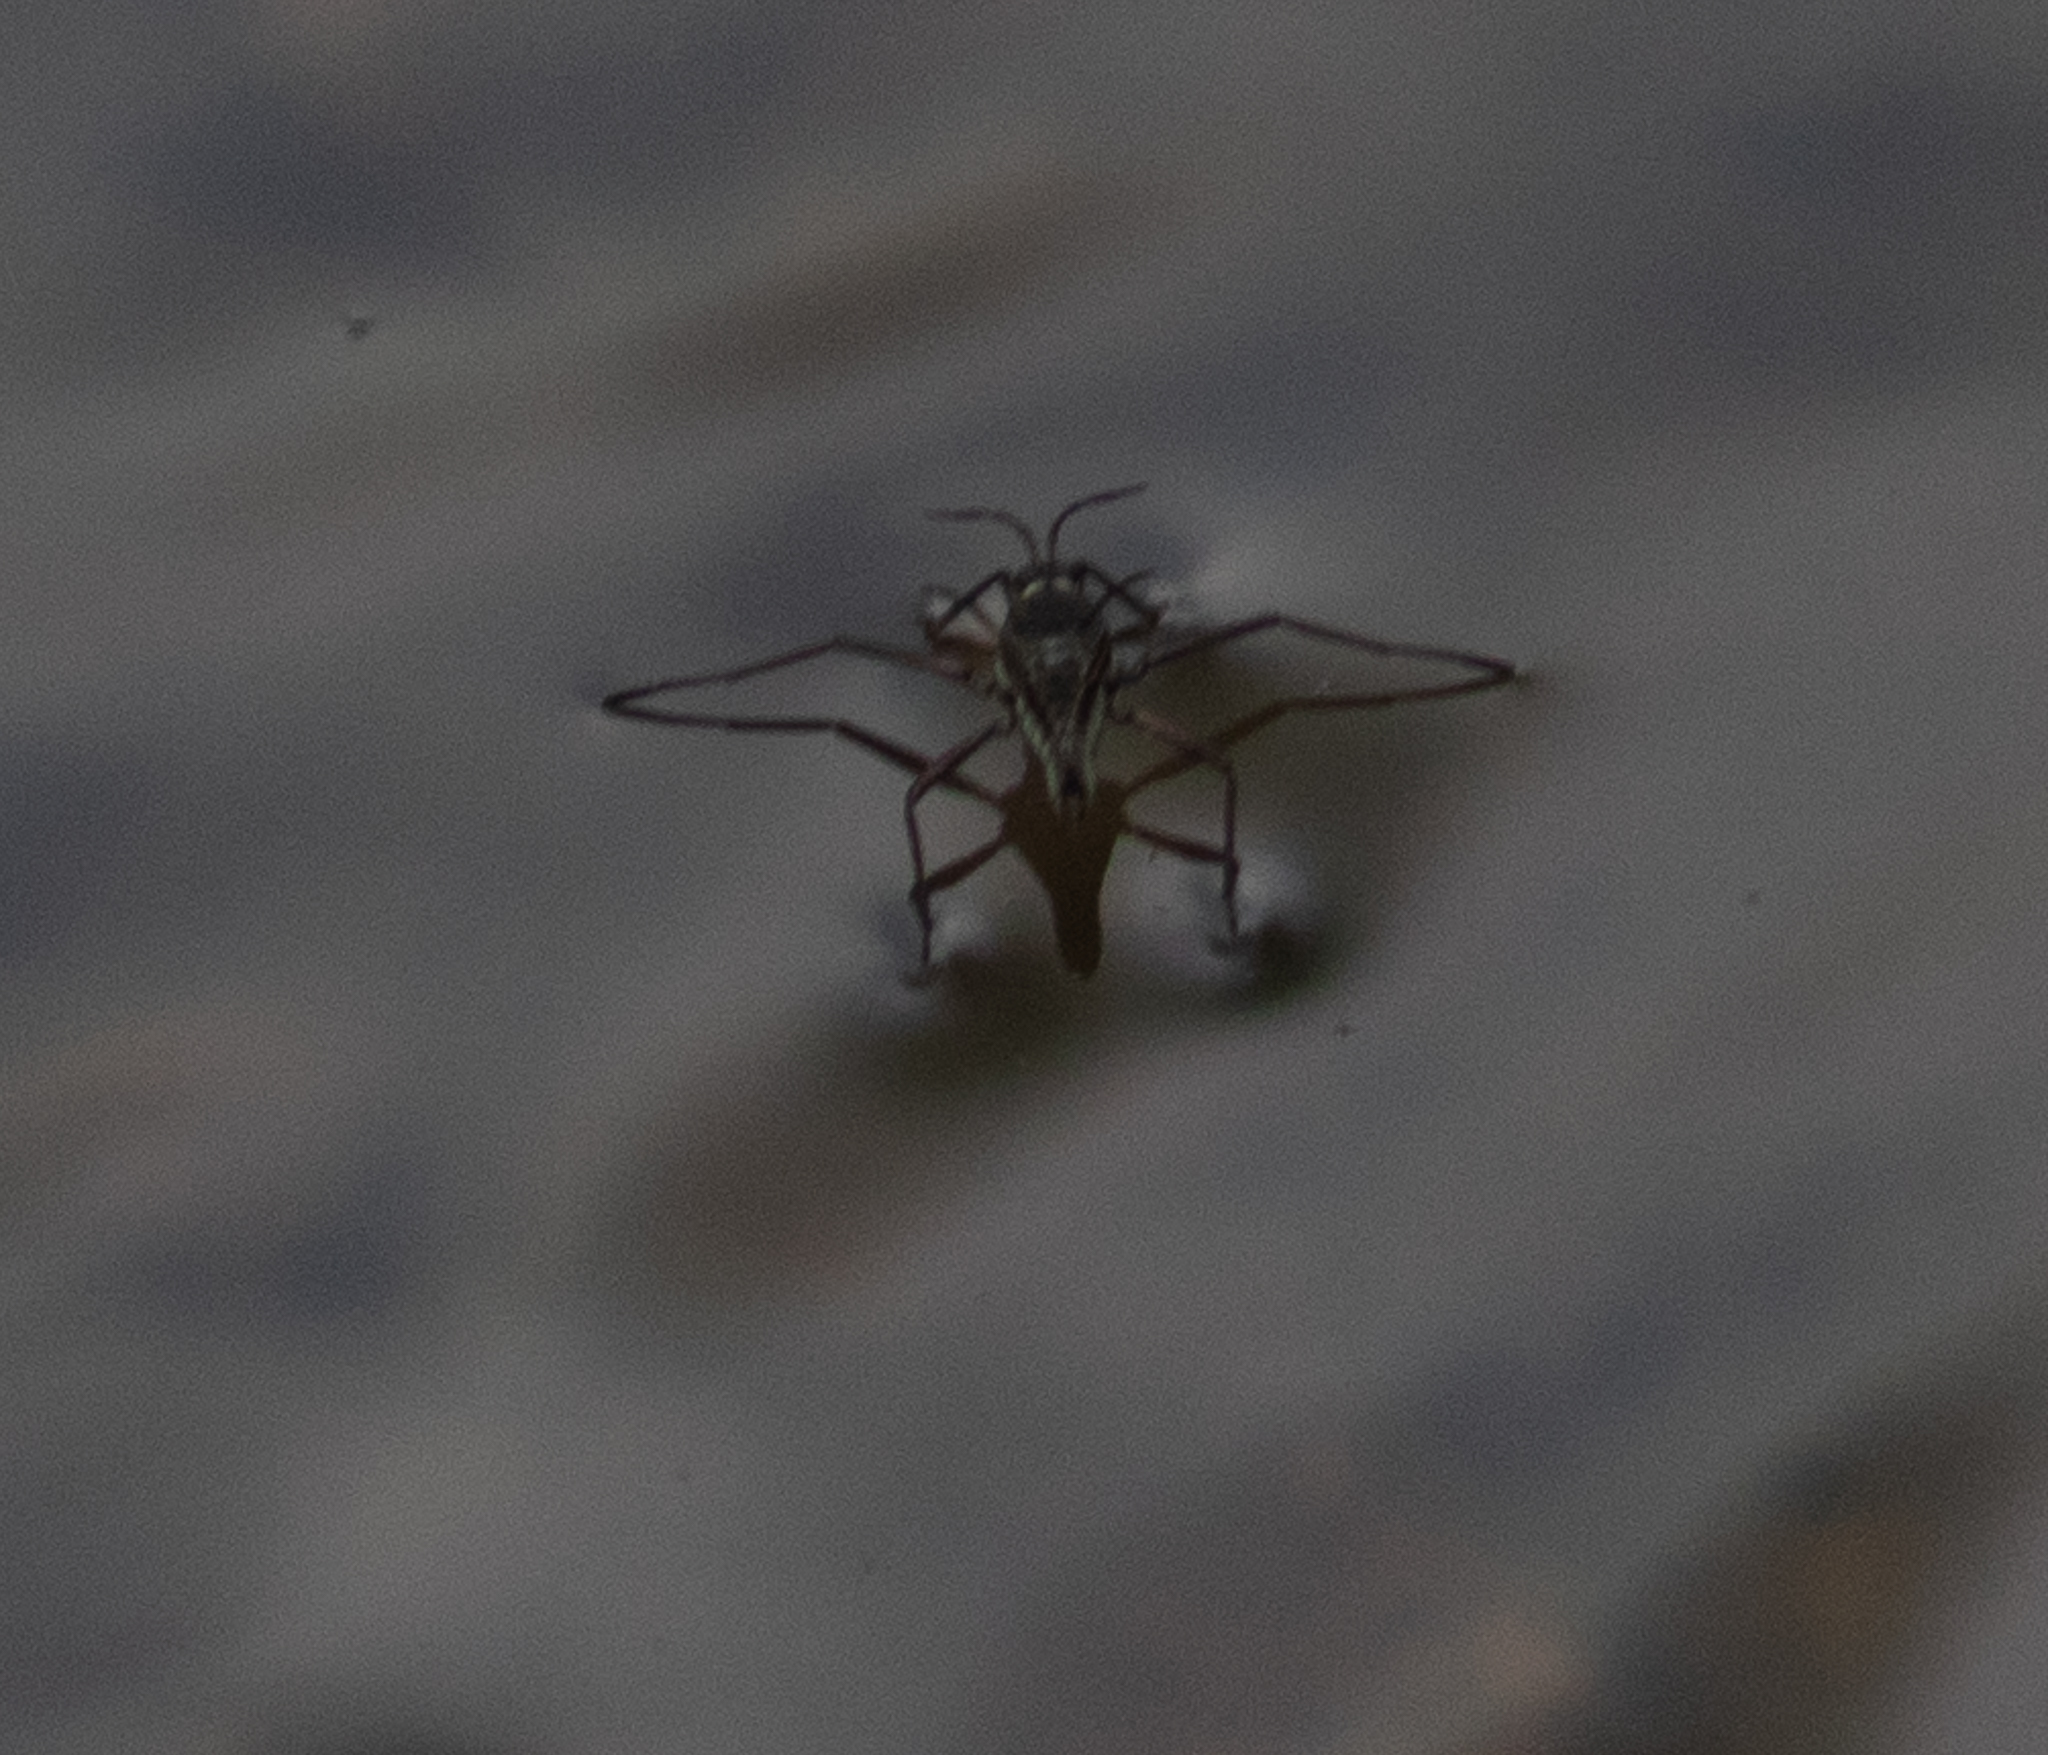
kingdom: Animalia
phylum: Arthropoda
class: Insecta
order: Hemiptera
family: Veliidae
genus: Rhagovelia
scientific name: Rhagovelia obesa
